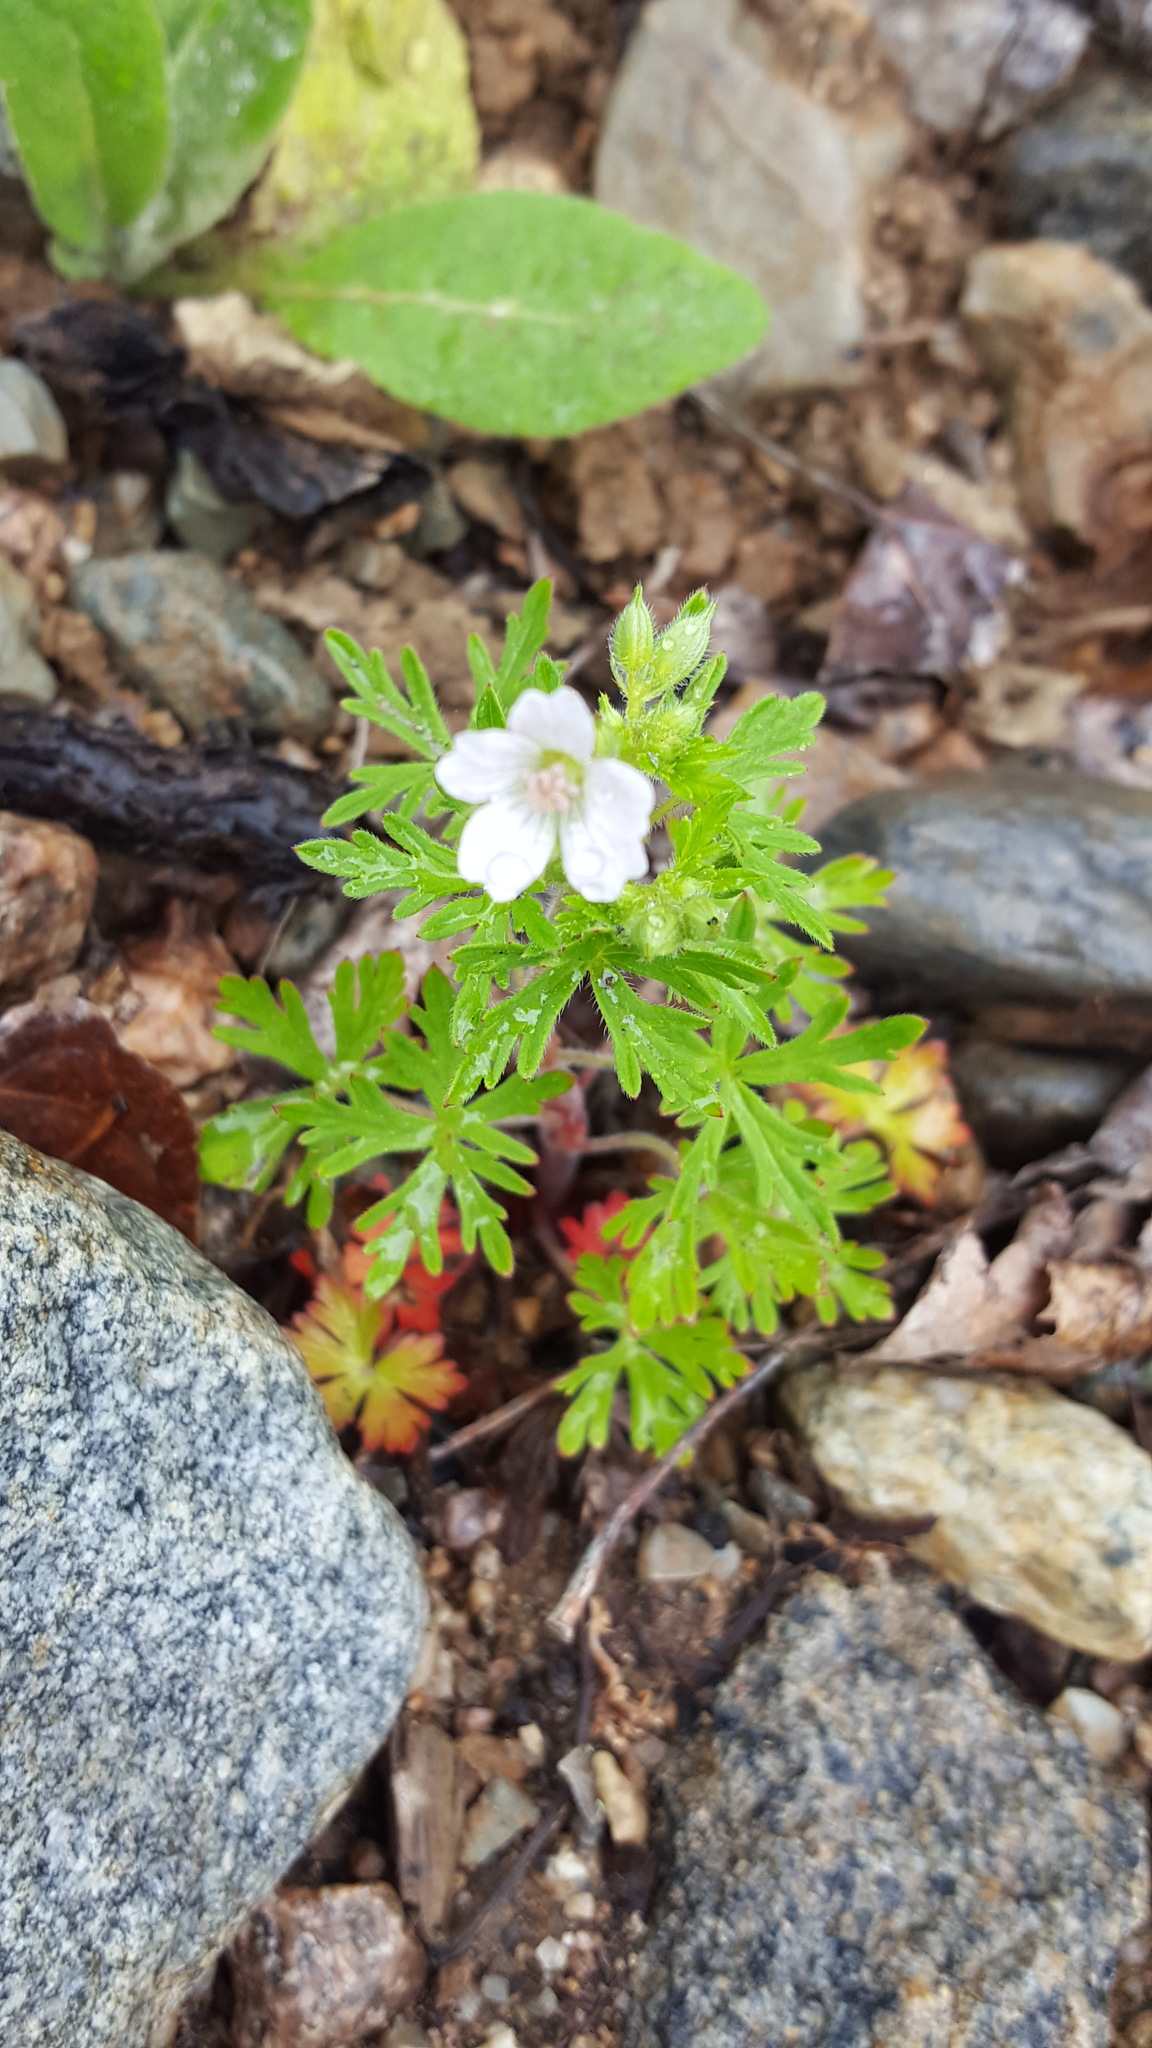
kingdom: Plantae
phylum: Tracheophyta
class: Magnoliopsida
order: Geraniales
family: Geraniaceae
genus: Geranium
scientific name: Geranium bicknellii
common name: Bicknell's cranesbill
